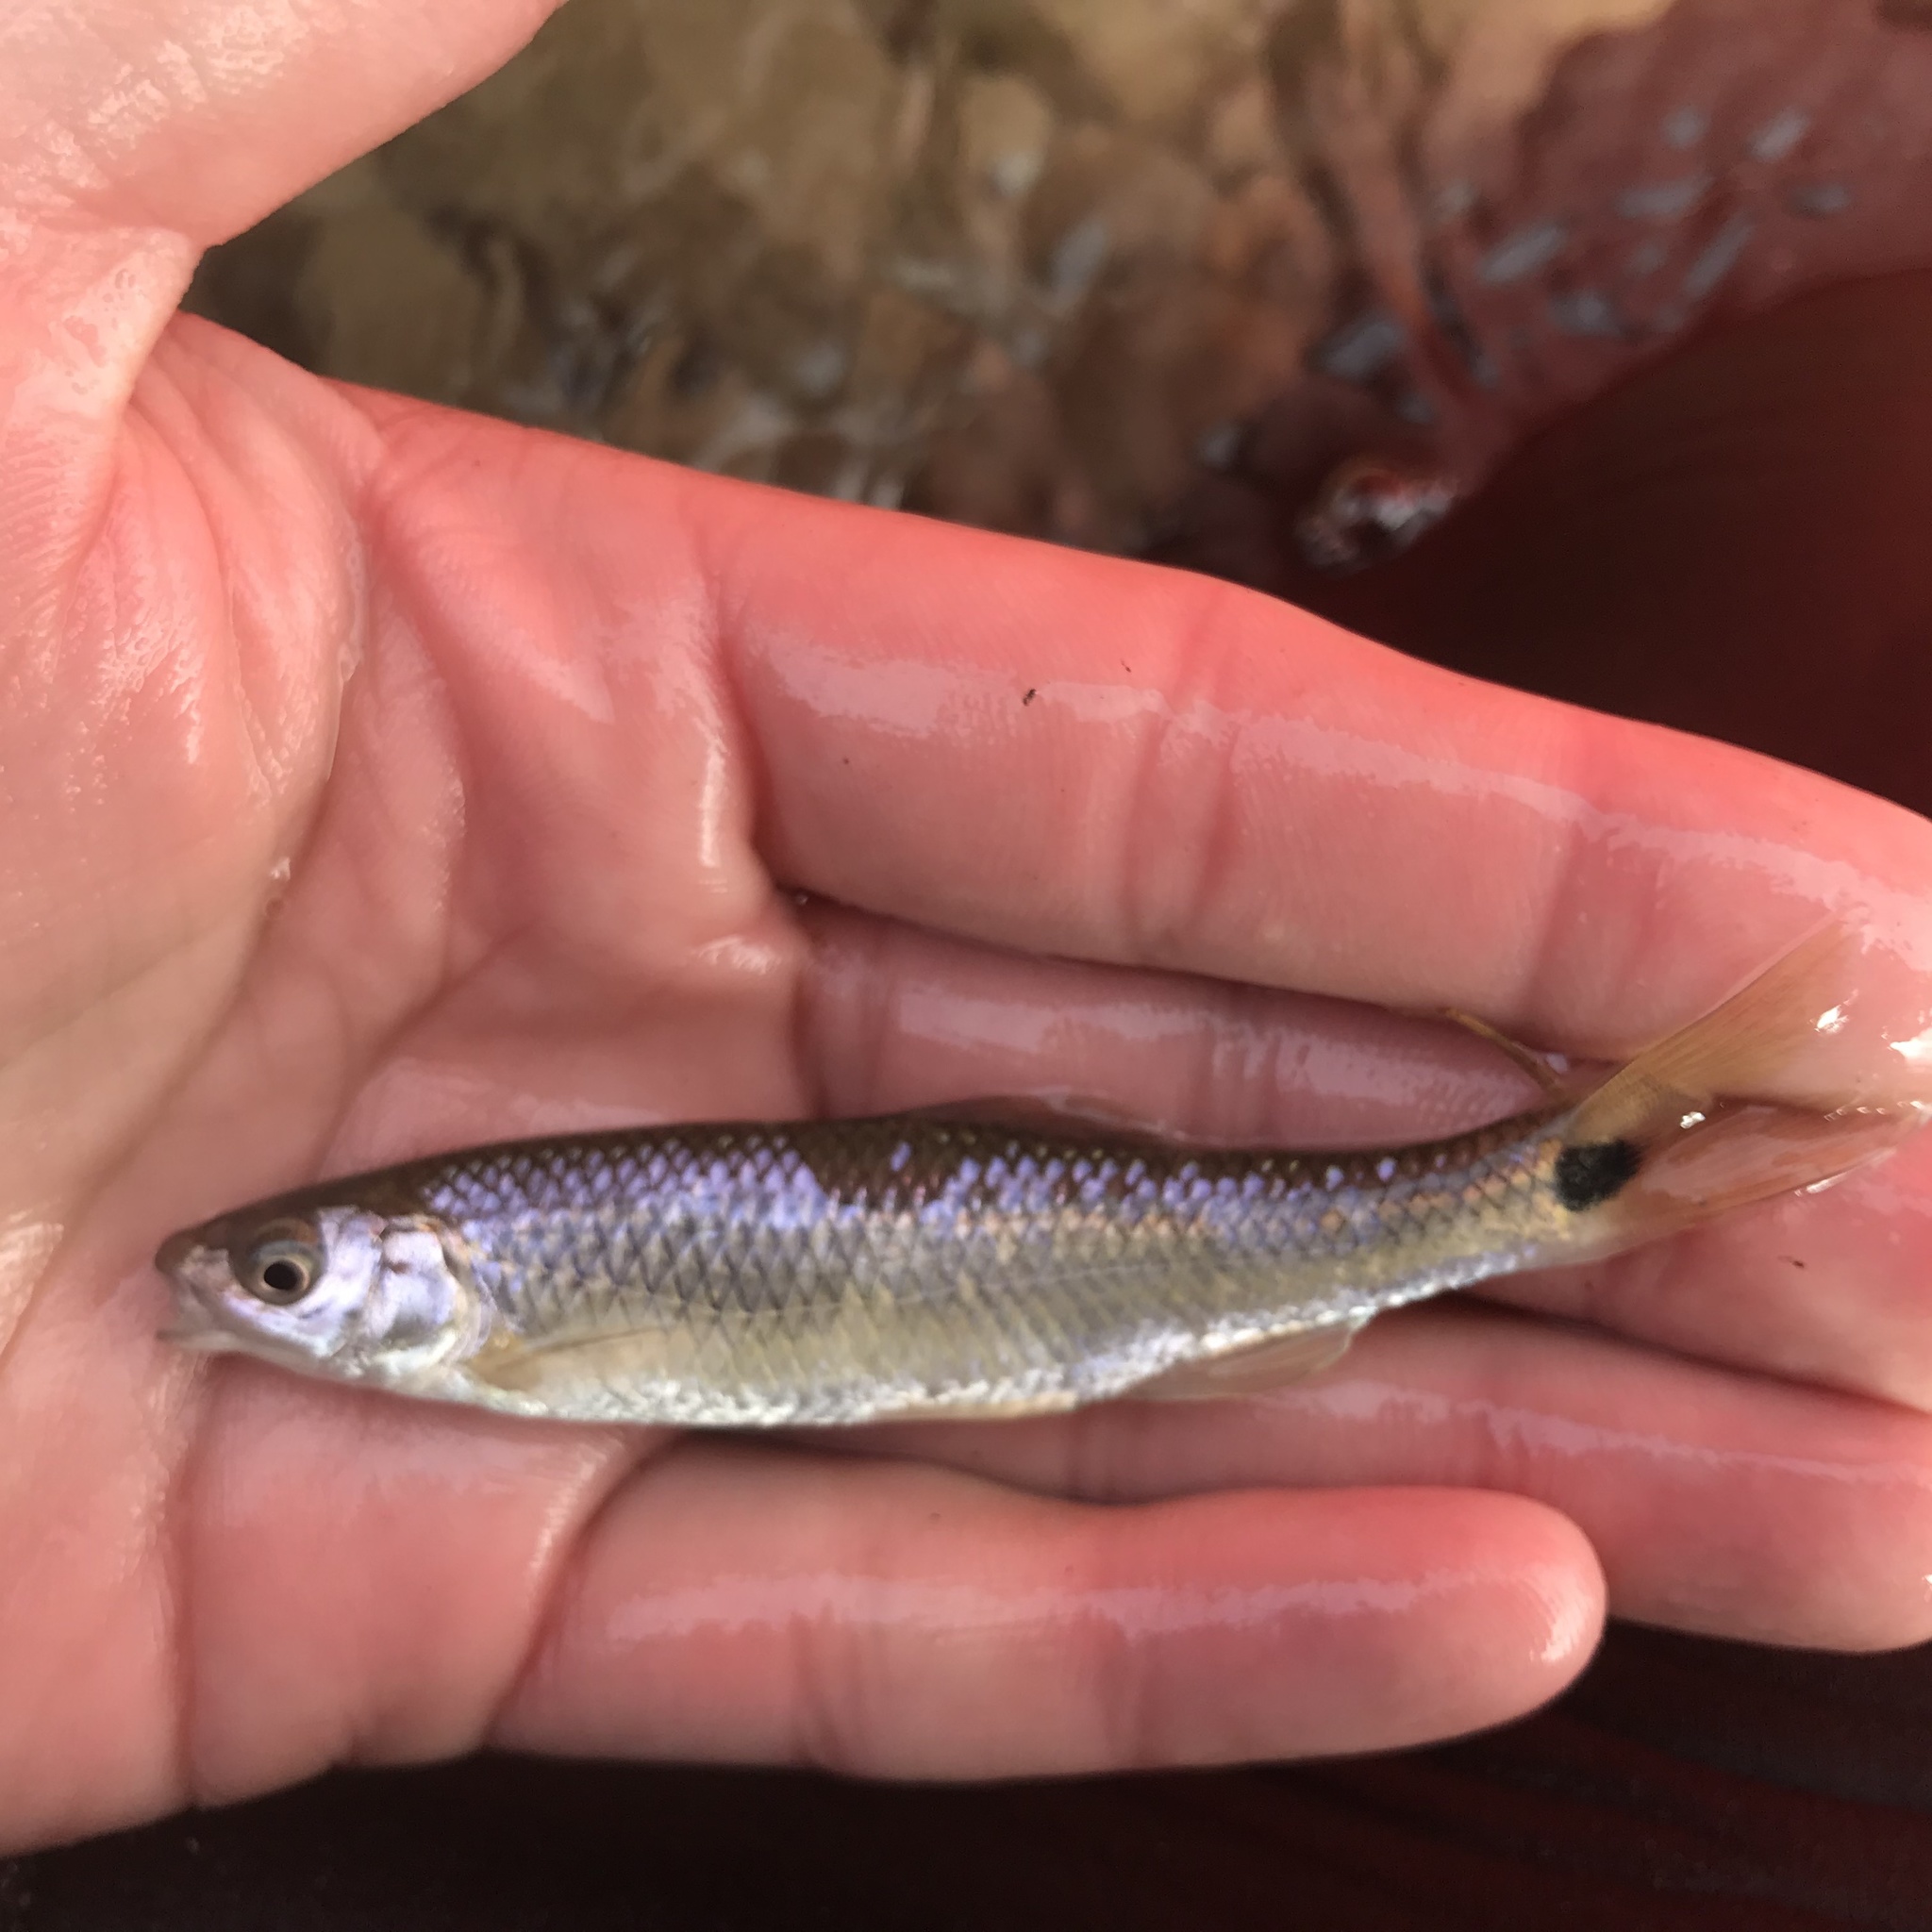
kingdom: Animalia
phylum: Chordata
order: Cypriniformes
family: Cyprinidae
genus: Cyprinella
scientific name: Cyprinella venusta
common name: Blacktail shiner
